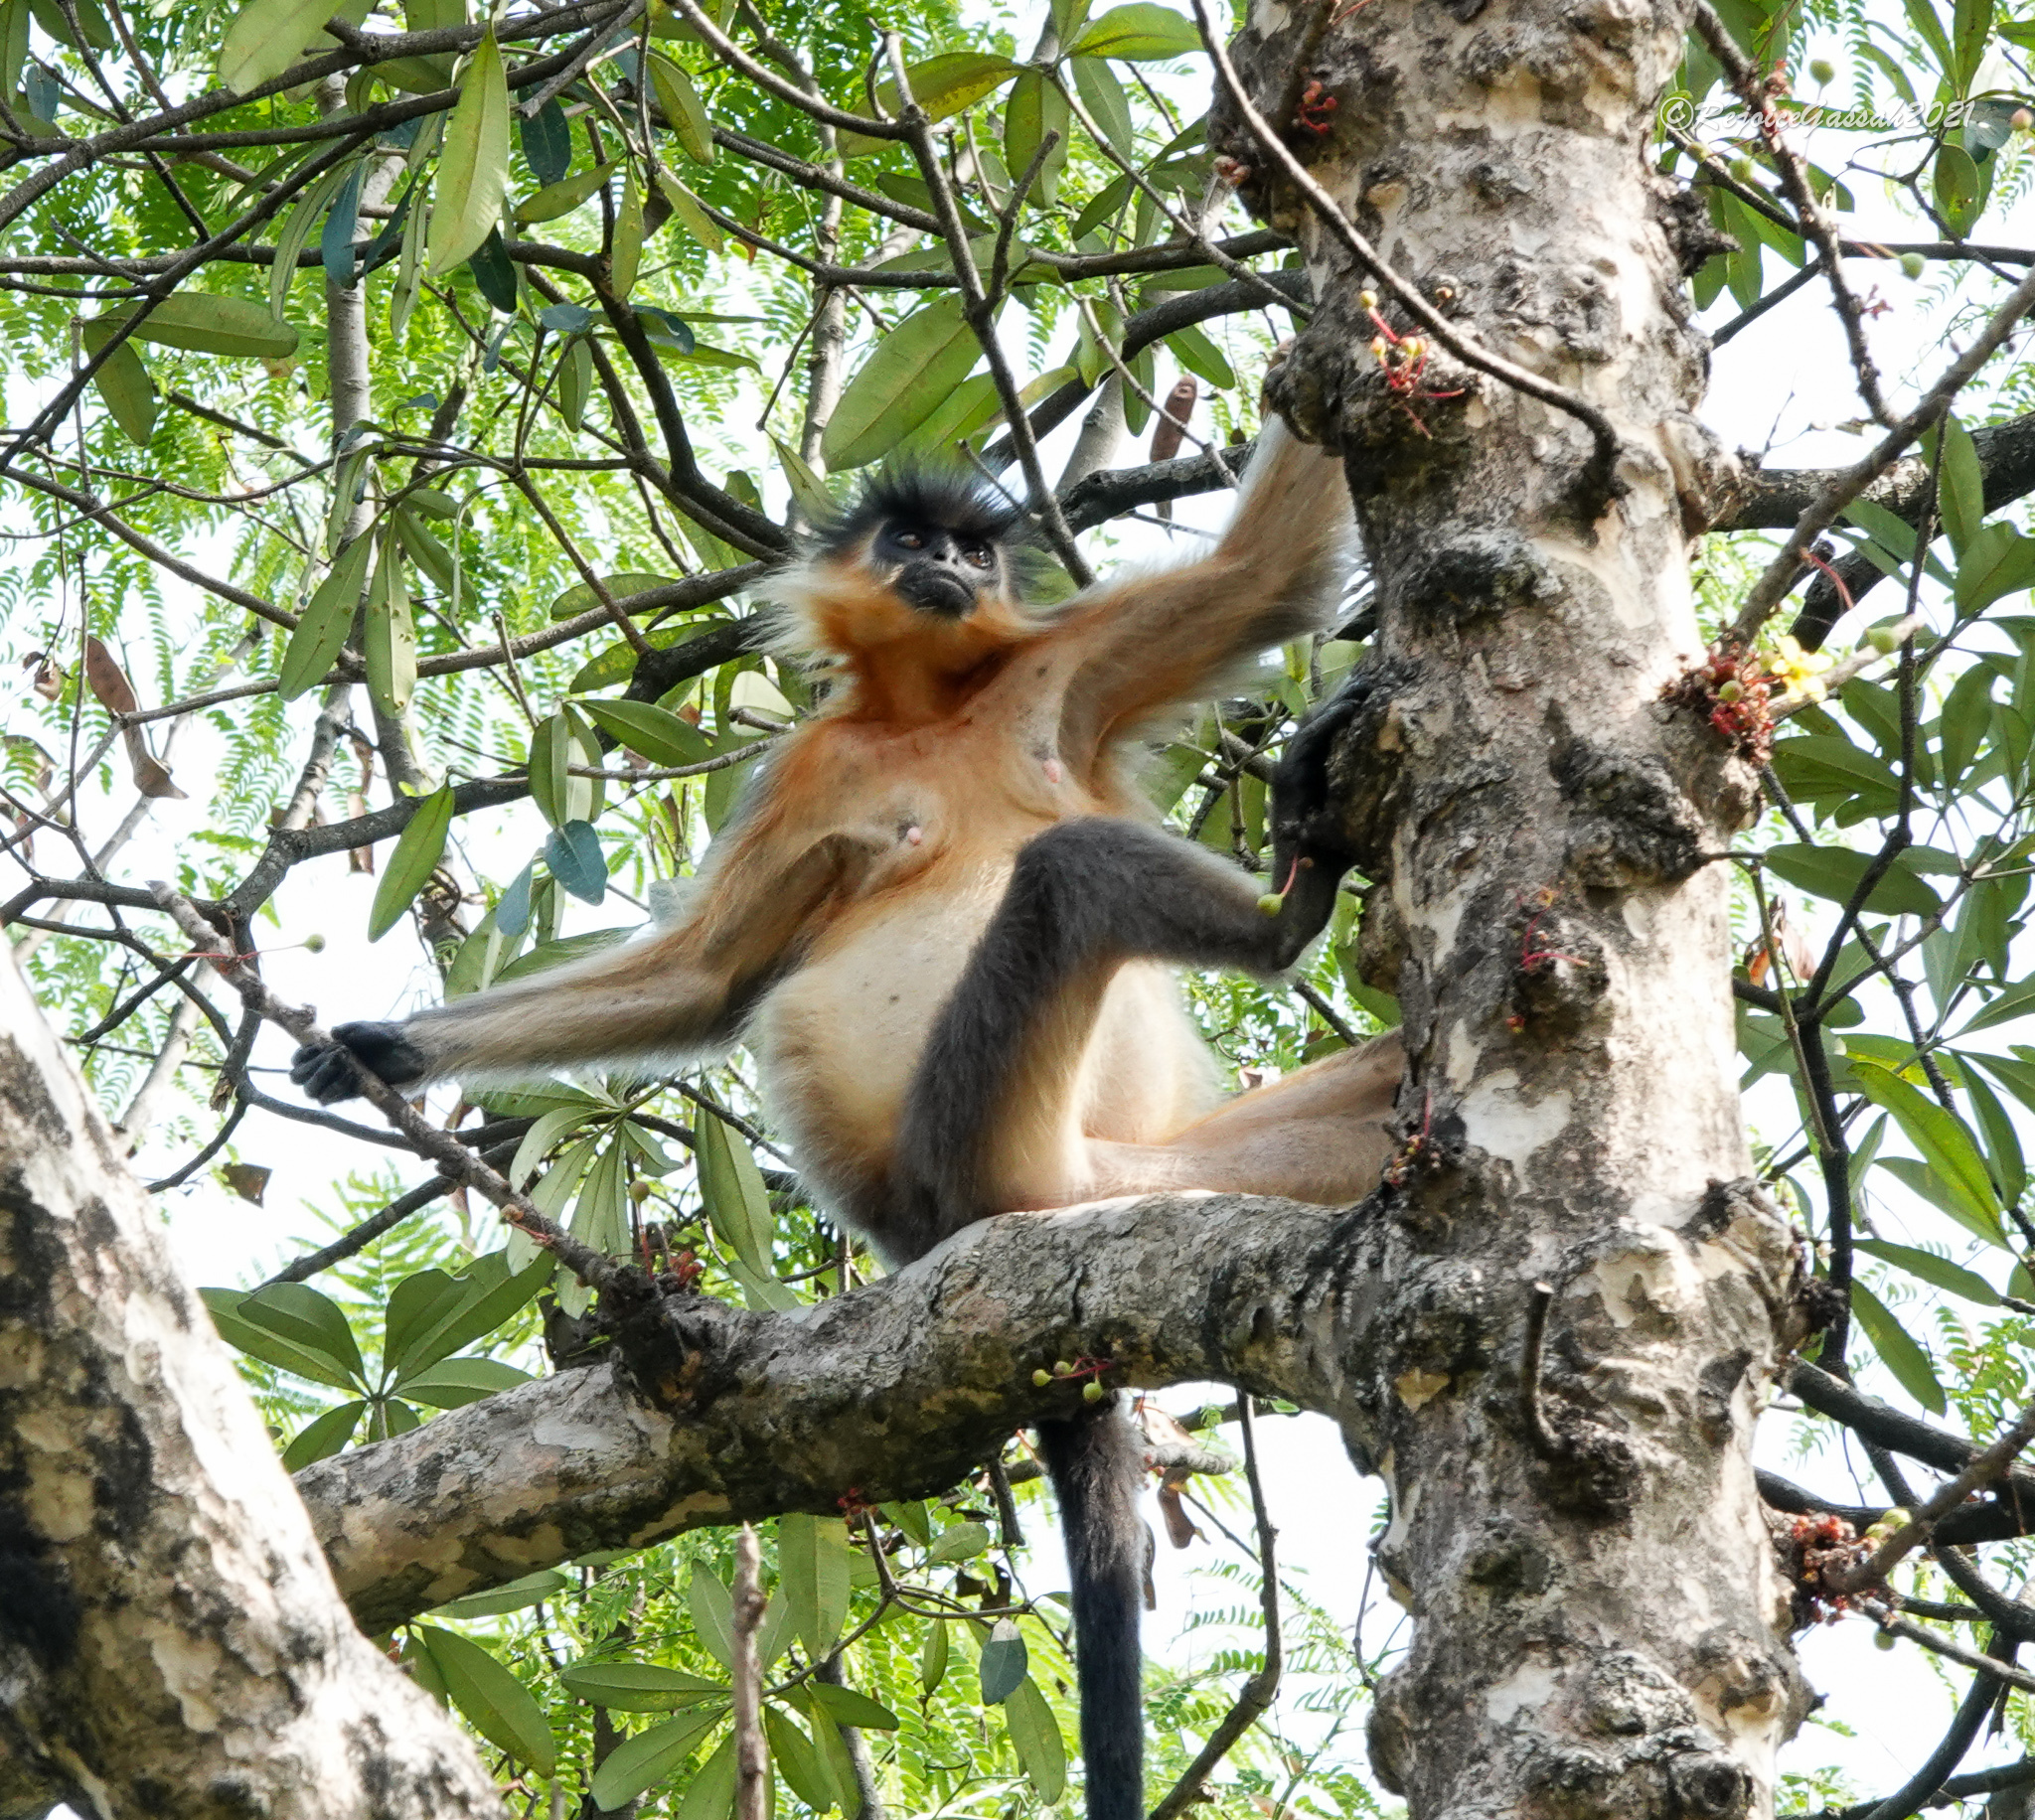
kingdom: Animalia
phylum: Chordata
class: Mammalia
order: Primates
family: Cercopithecidae
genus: Trachypithecus
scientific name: Trachypithecus pileatus
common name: Capped langur
